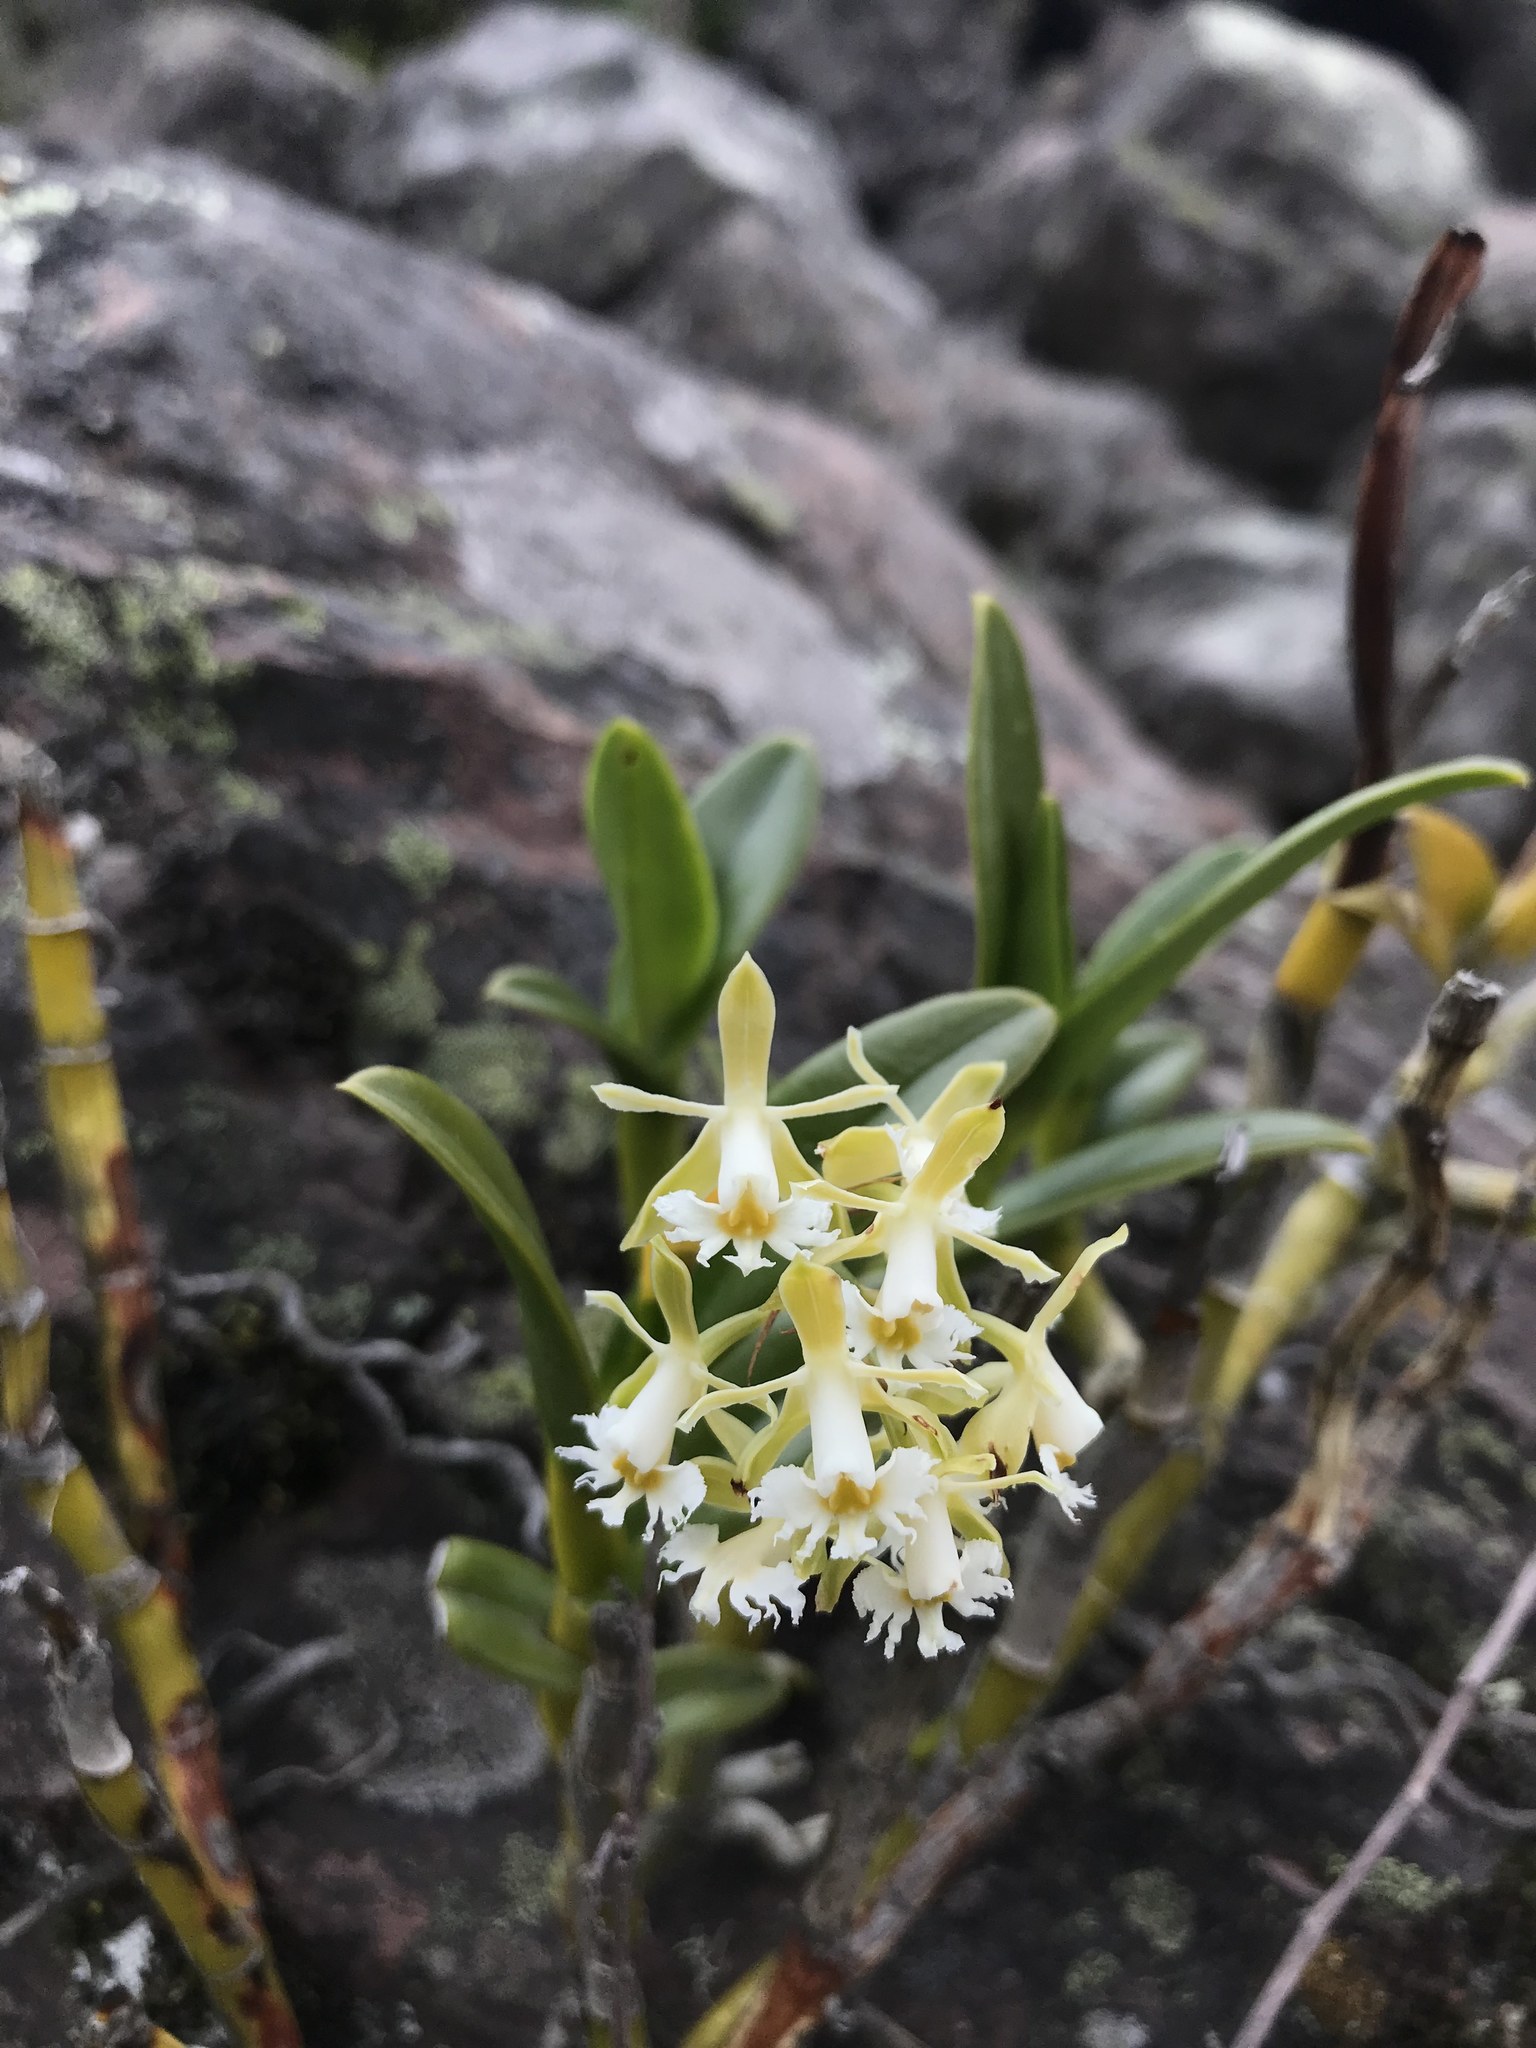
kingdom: Plantae
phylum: Tracheophyta
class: Liliopsida
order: Asparagales
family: Orchidaceae
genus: Epidendrum
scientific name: Epidendrum brevivenium
